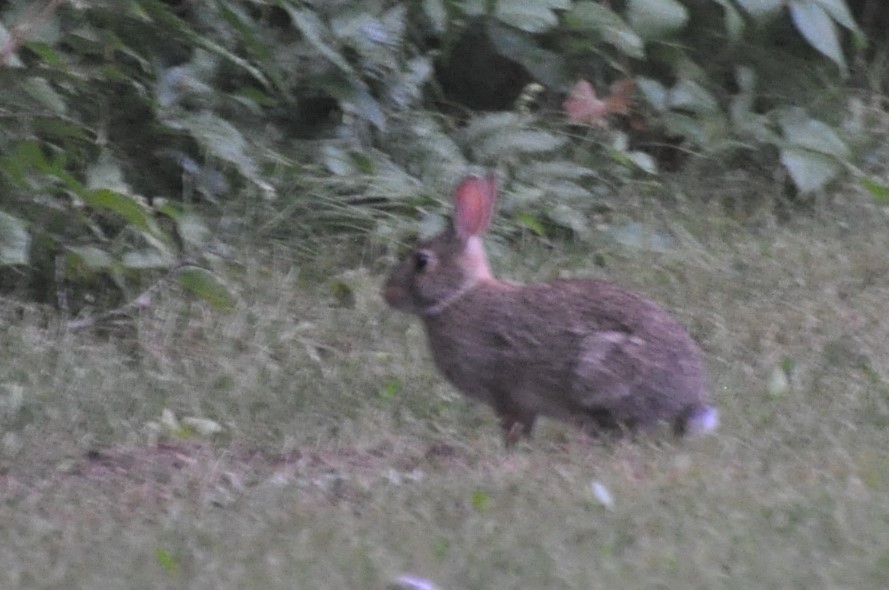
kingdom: Animalia
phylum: Chordata
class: Mammalia
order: Lagomorpha
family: Leporidae
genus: Sylvilagus
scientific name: Sylvilagus floridanus
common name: Eastern cottontail
